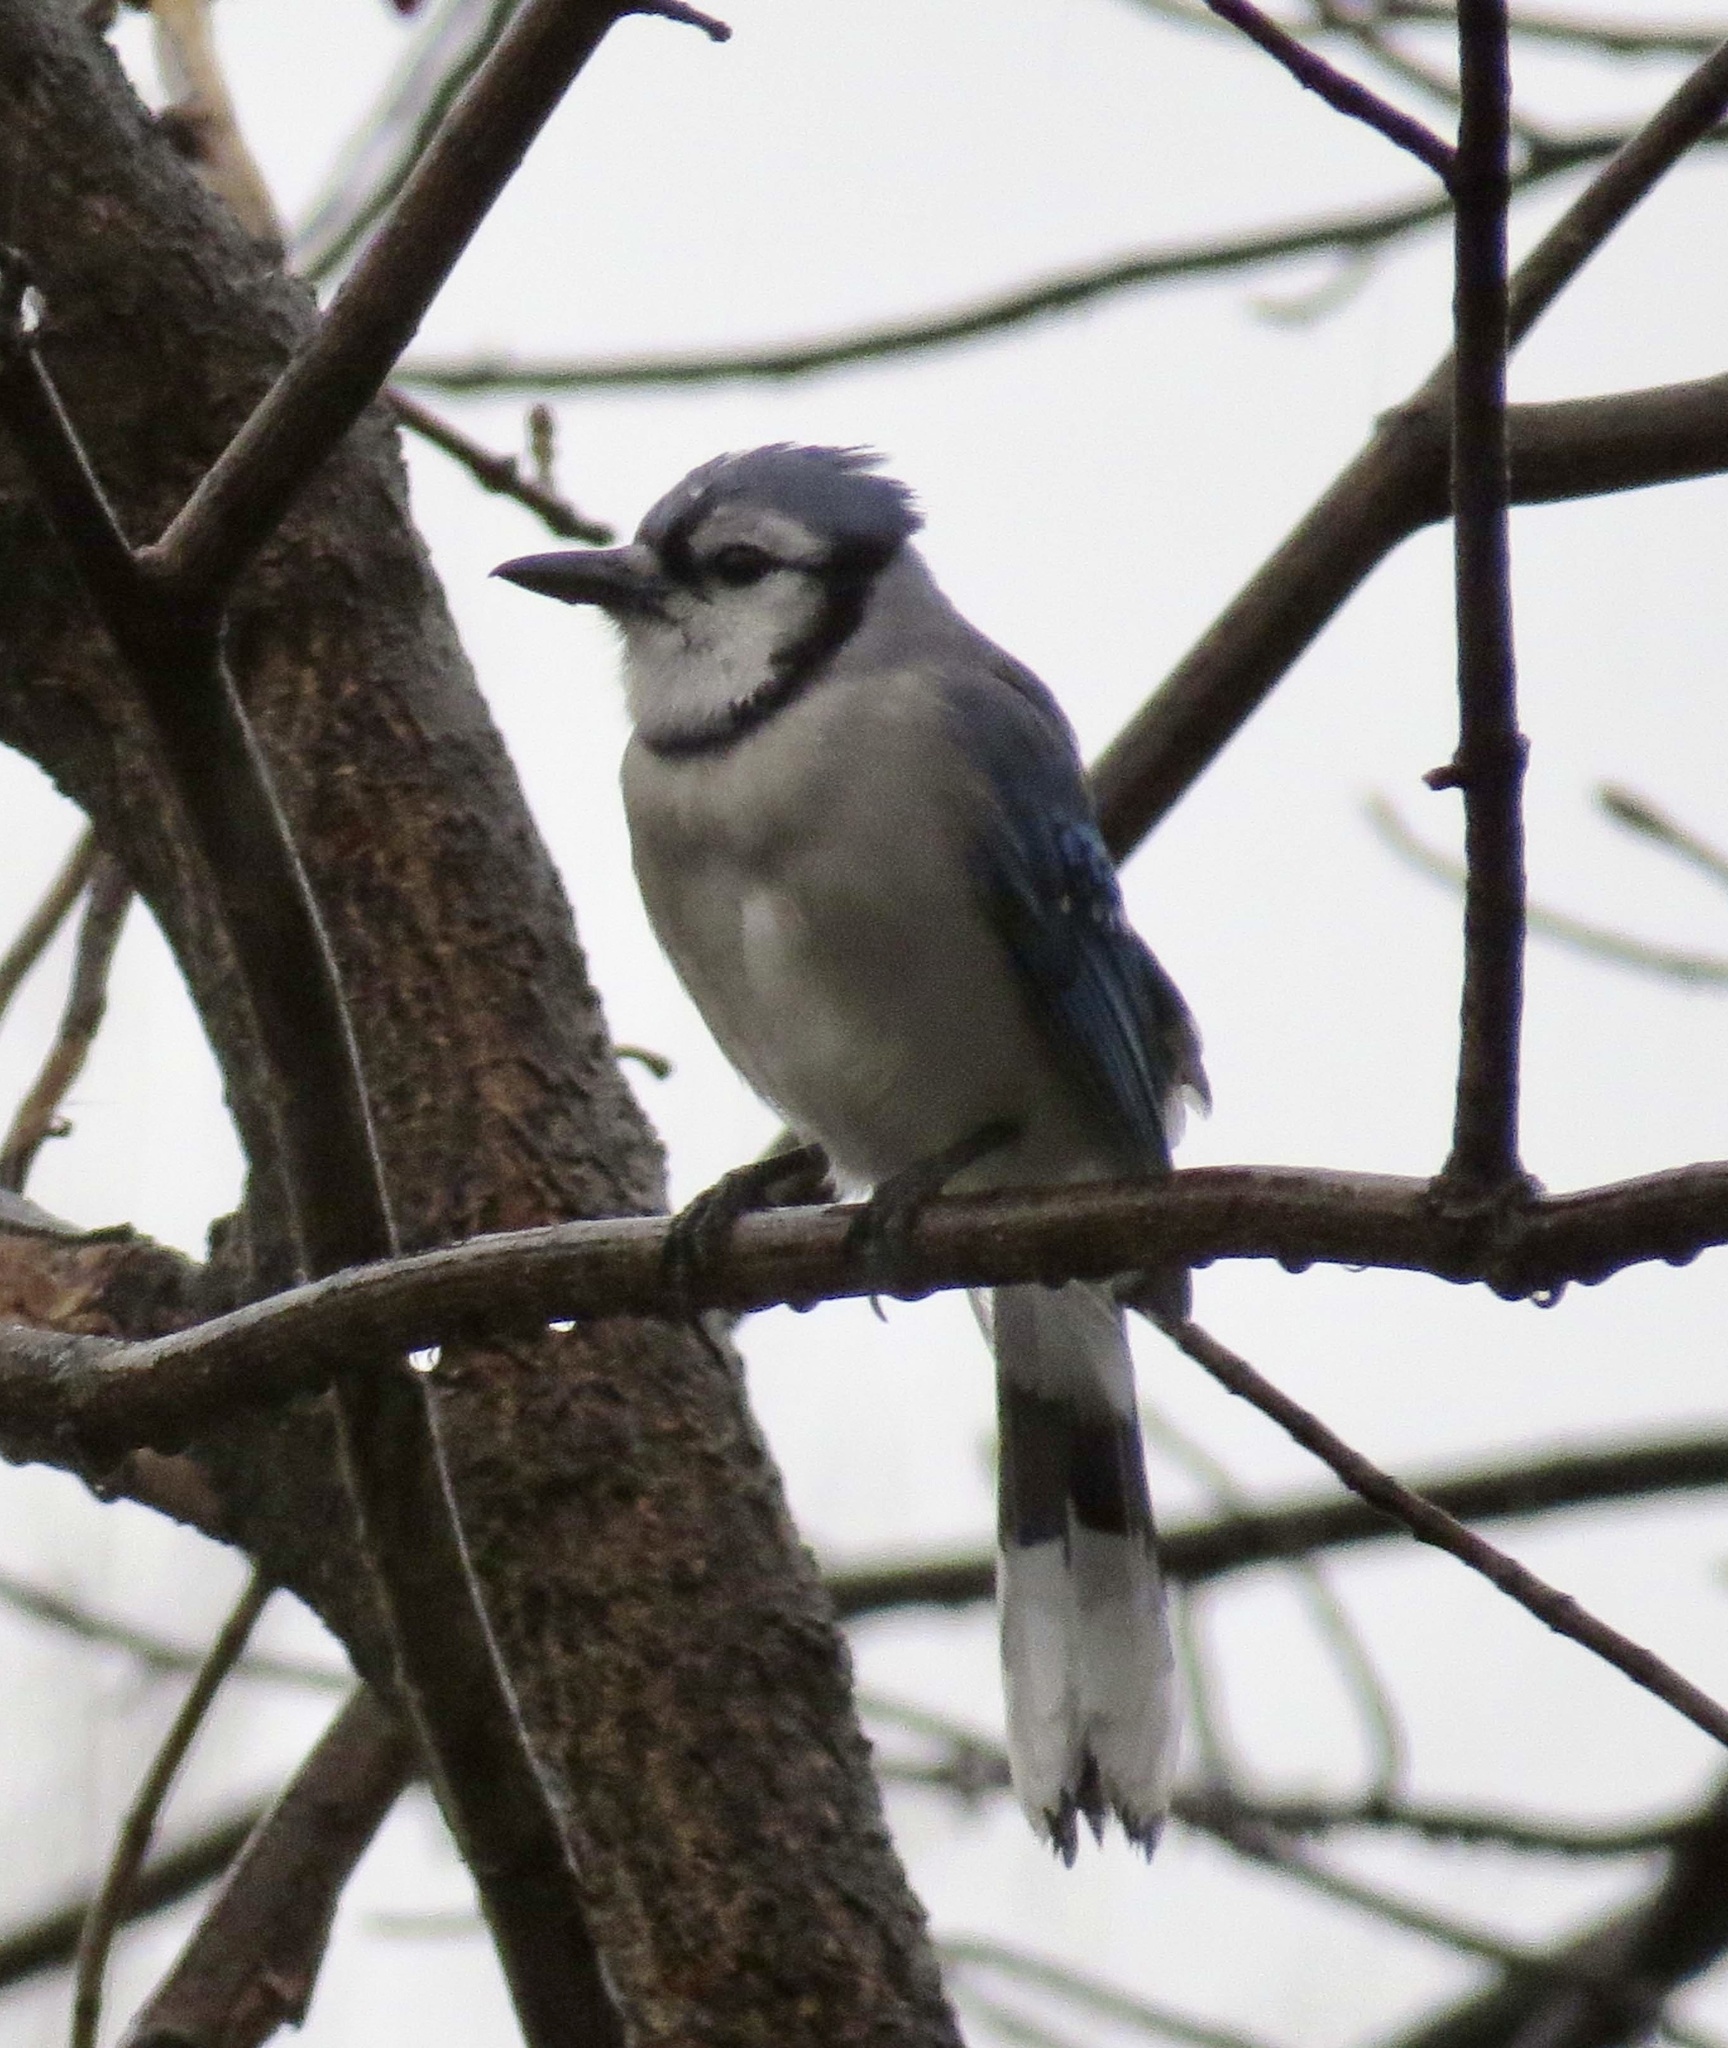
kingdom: Animalia
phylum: Chordata
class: Aves
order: Passeriformes
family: Corvidae
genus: Cyanocitta
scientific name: Cyanocitta cristata
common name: Blue jay
